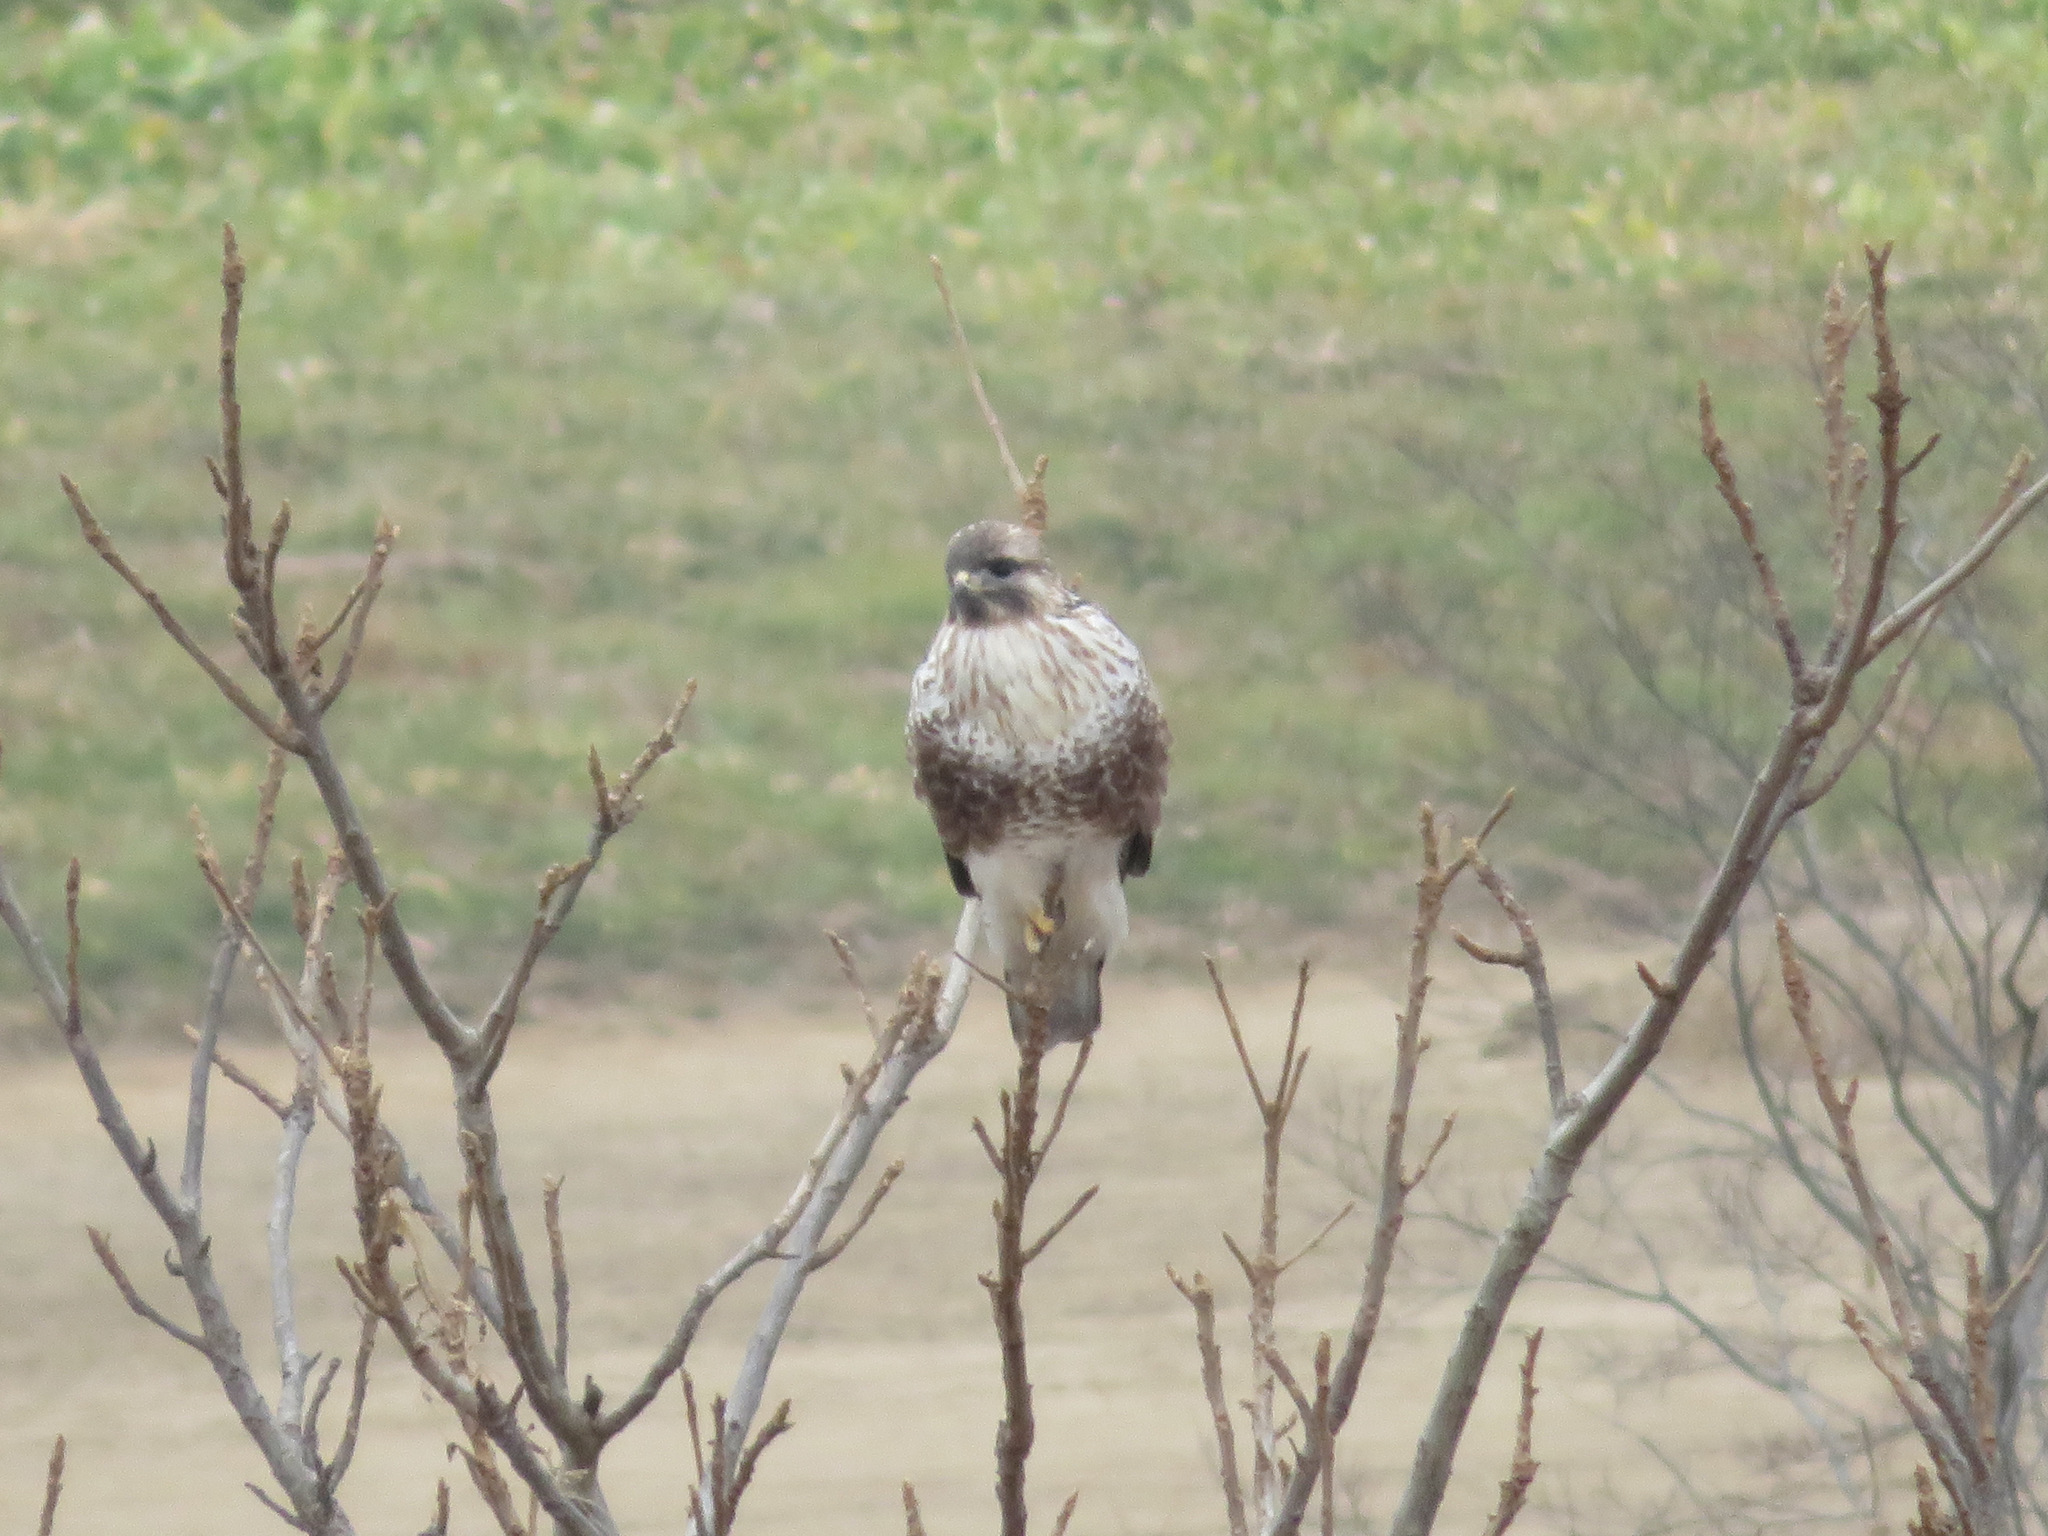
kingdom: Animalia
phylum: Chordata
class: Aves
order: Accipitriformes
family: Accipitridae
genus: Buteo
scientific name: Buteo japonicus
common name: Eastern buzzard
